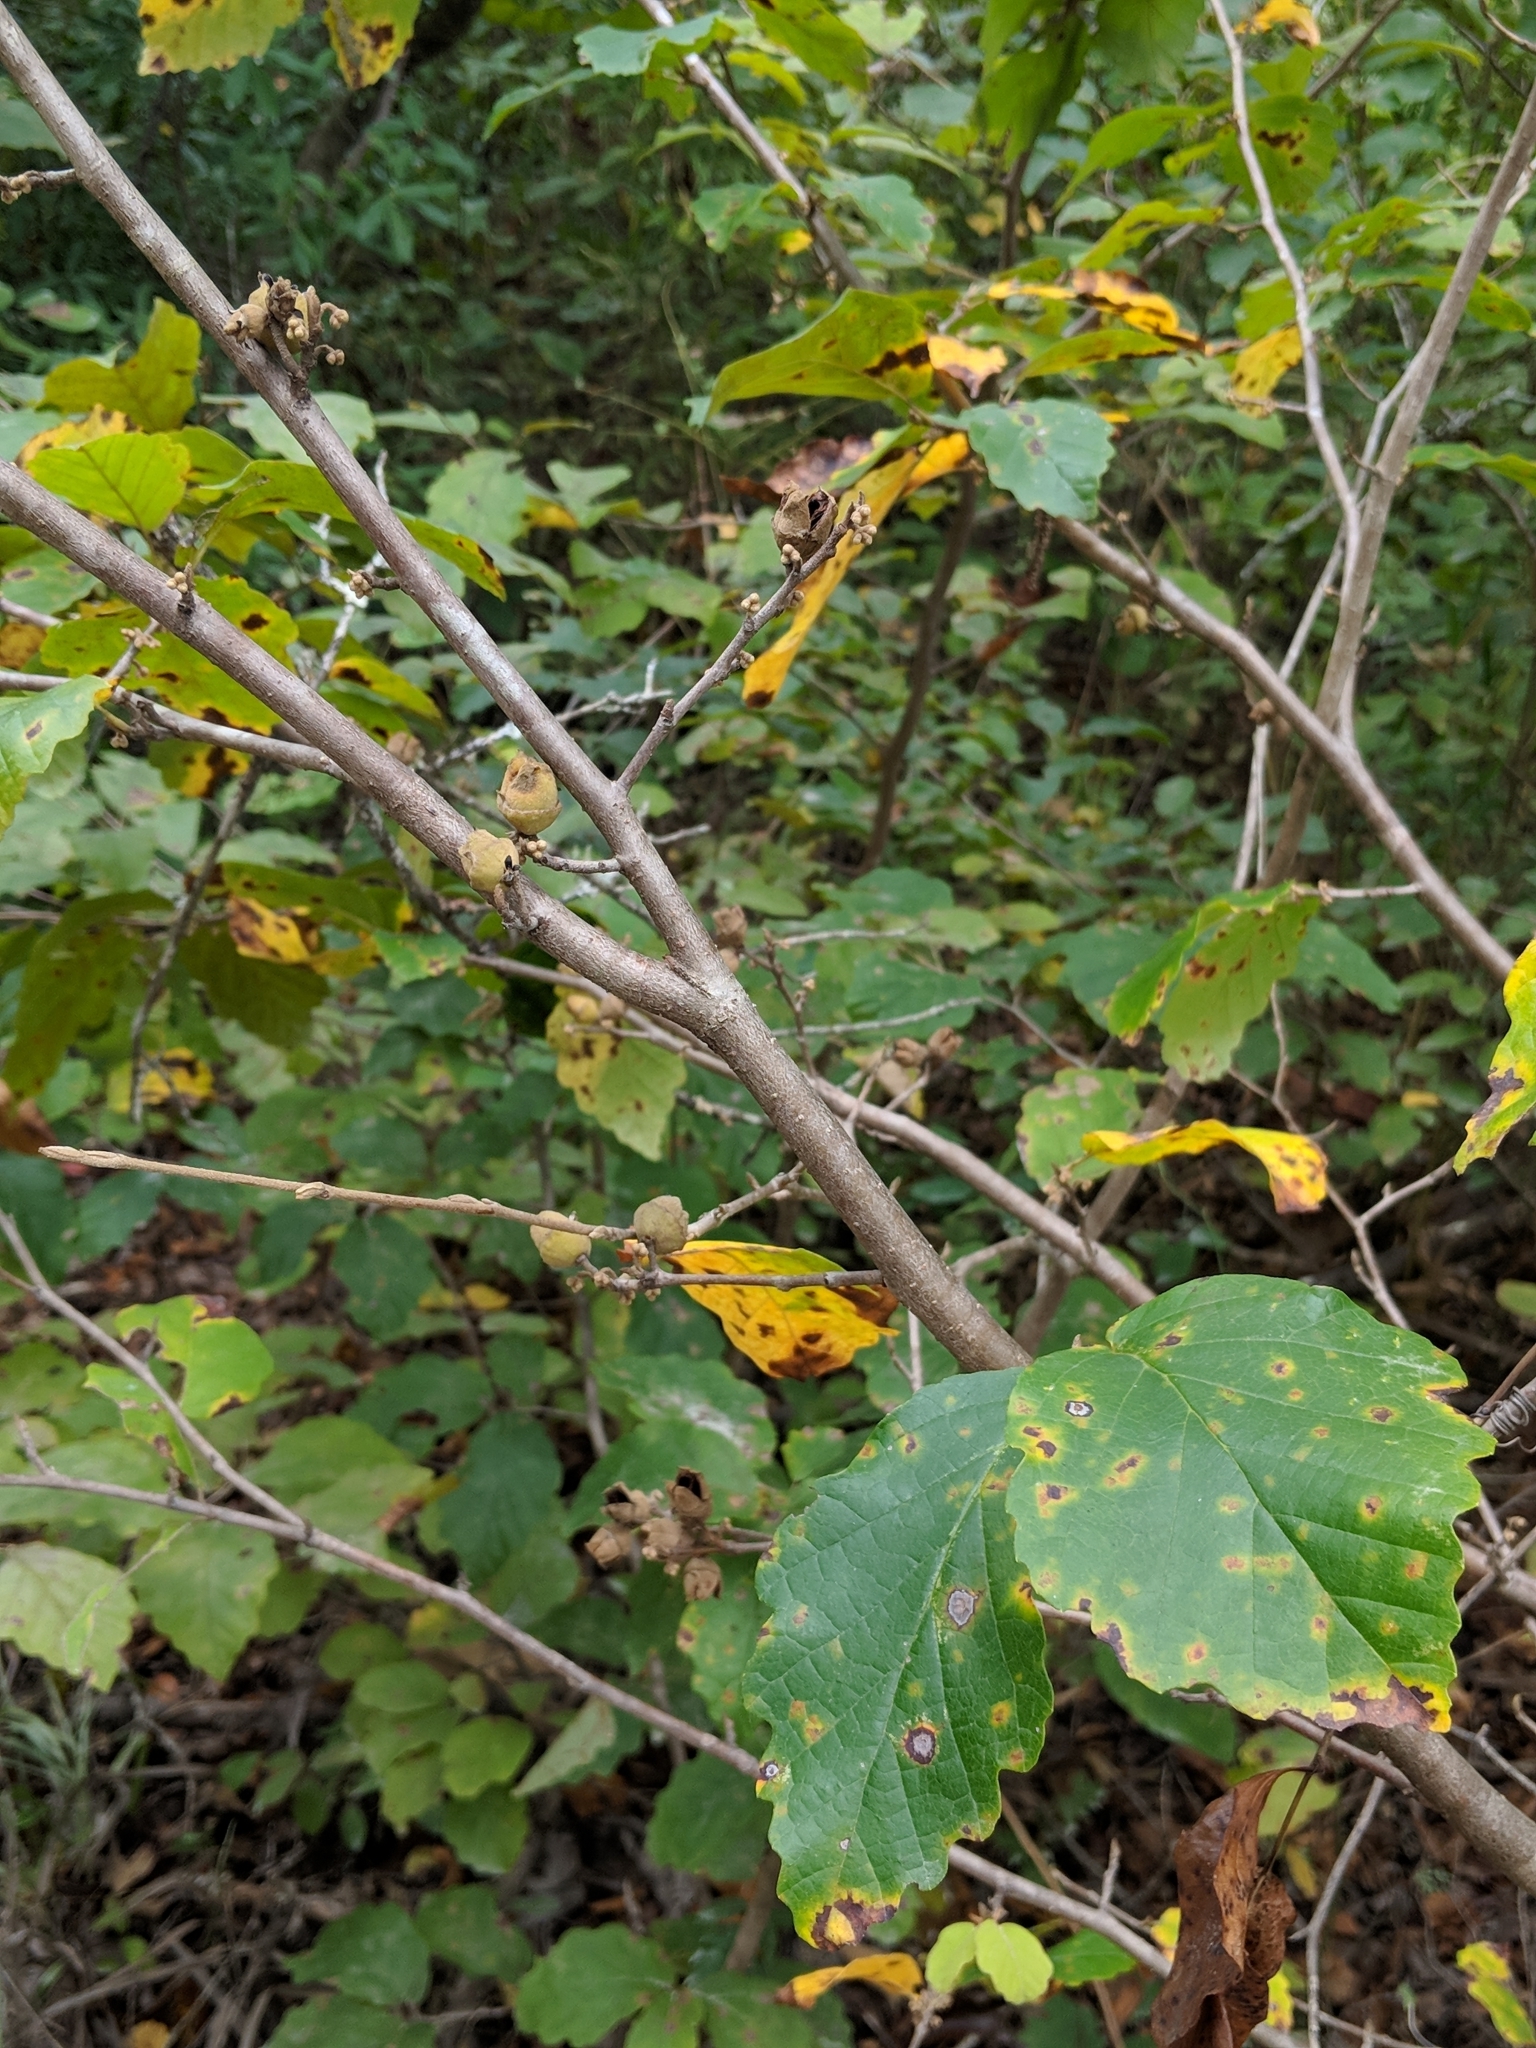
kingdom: Plantae
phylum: Tracheophyta
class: Magnoliopsida
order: Saxifragales
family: Hamamelidaceae
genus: Hamamelis
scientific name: Hamamelis virginiana
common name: Witch-hazel
